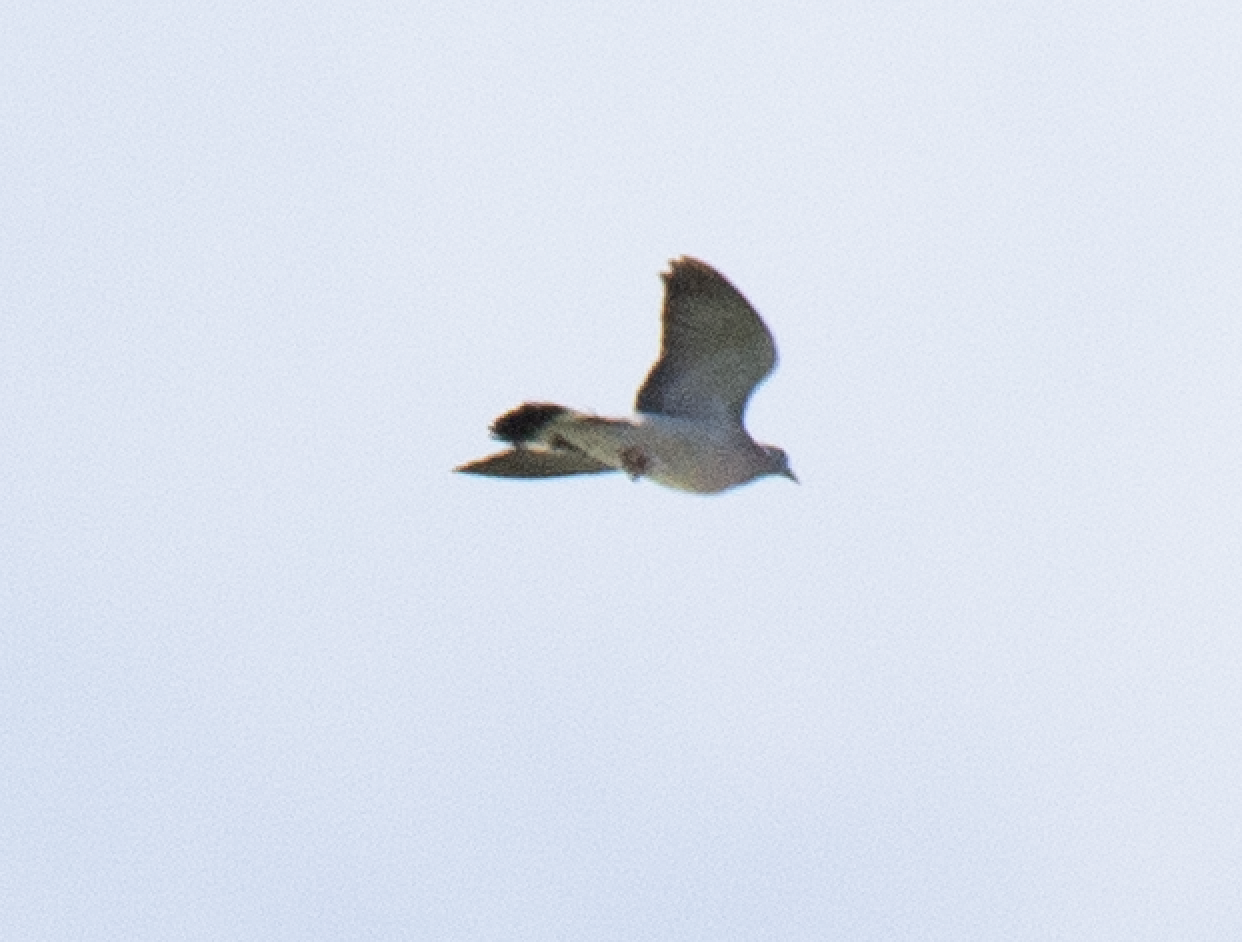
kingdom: Animalia
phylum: Chordata
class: Aves
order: Columbiformes
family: Columbidae
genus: Columba
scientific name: Columba palumbus
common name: Common wood pigeon
